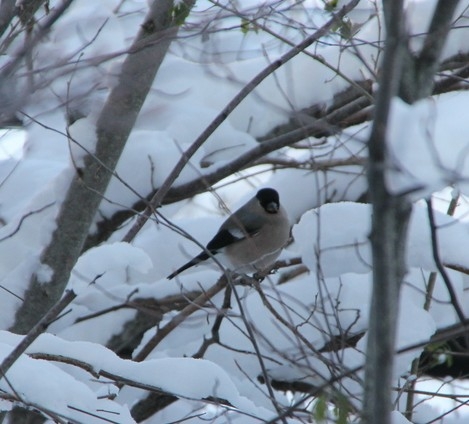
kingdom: Animalia
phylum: Chordata
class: Aves
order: Passeriformes
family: Fringillidae
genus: Pyrrhula
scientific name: Pyrrhula pyrrhula
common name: Eurasian bullfinch
